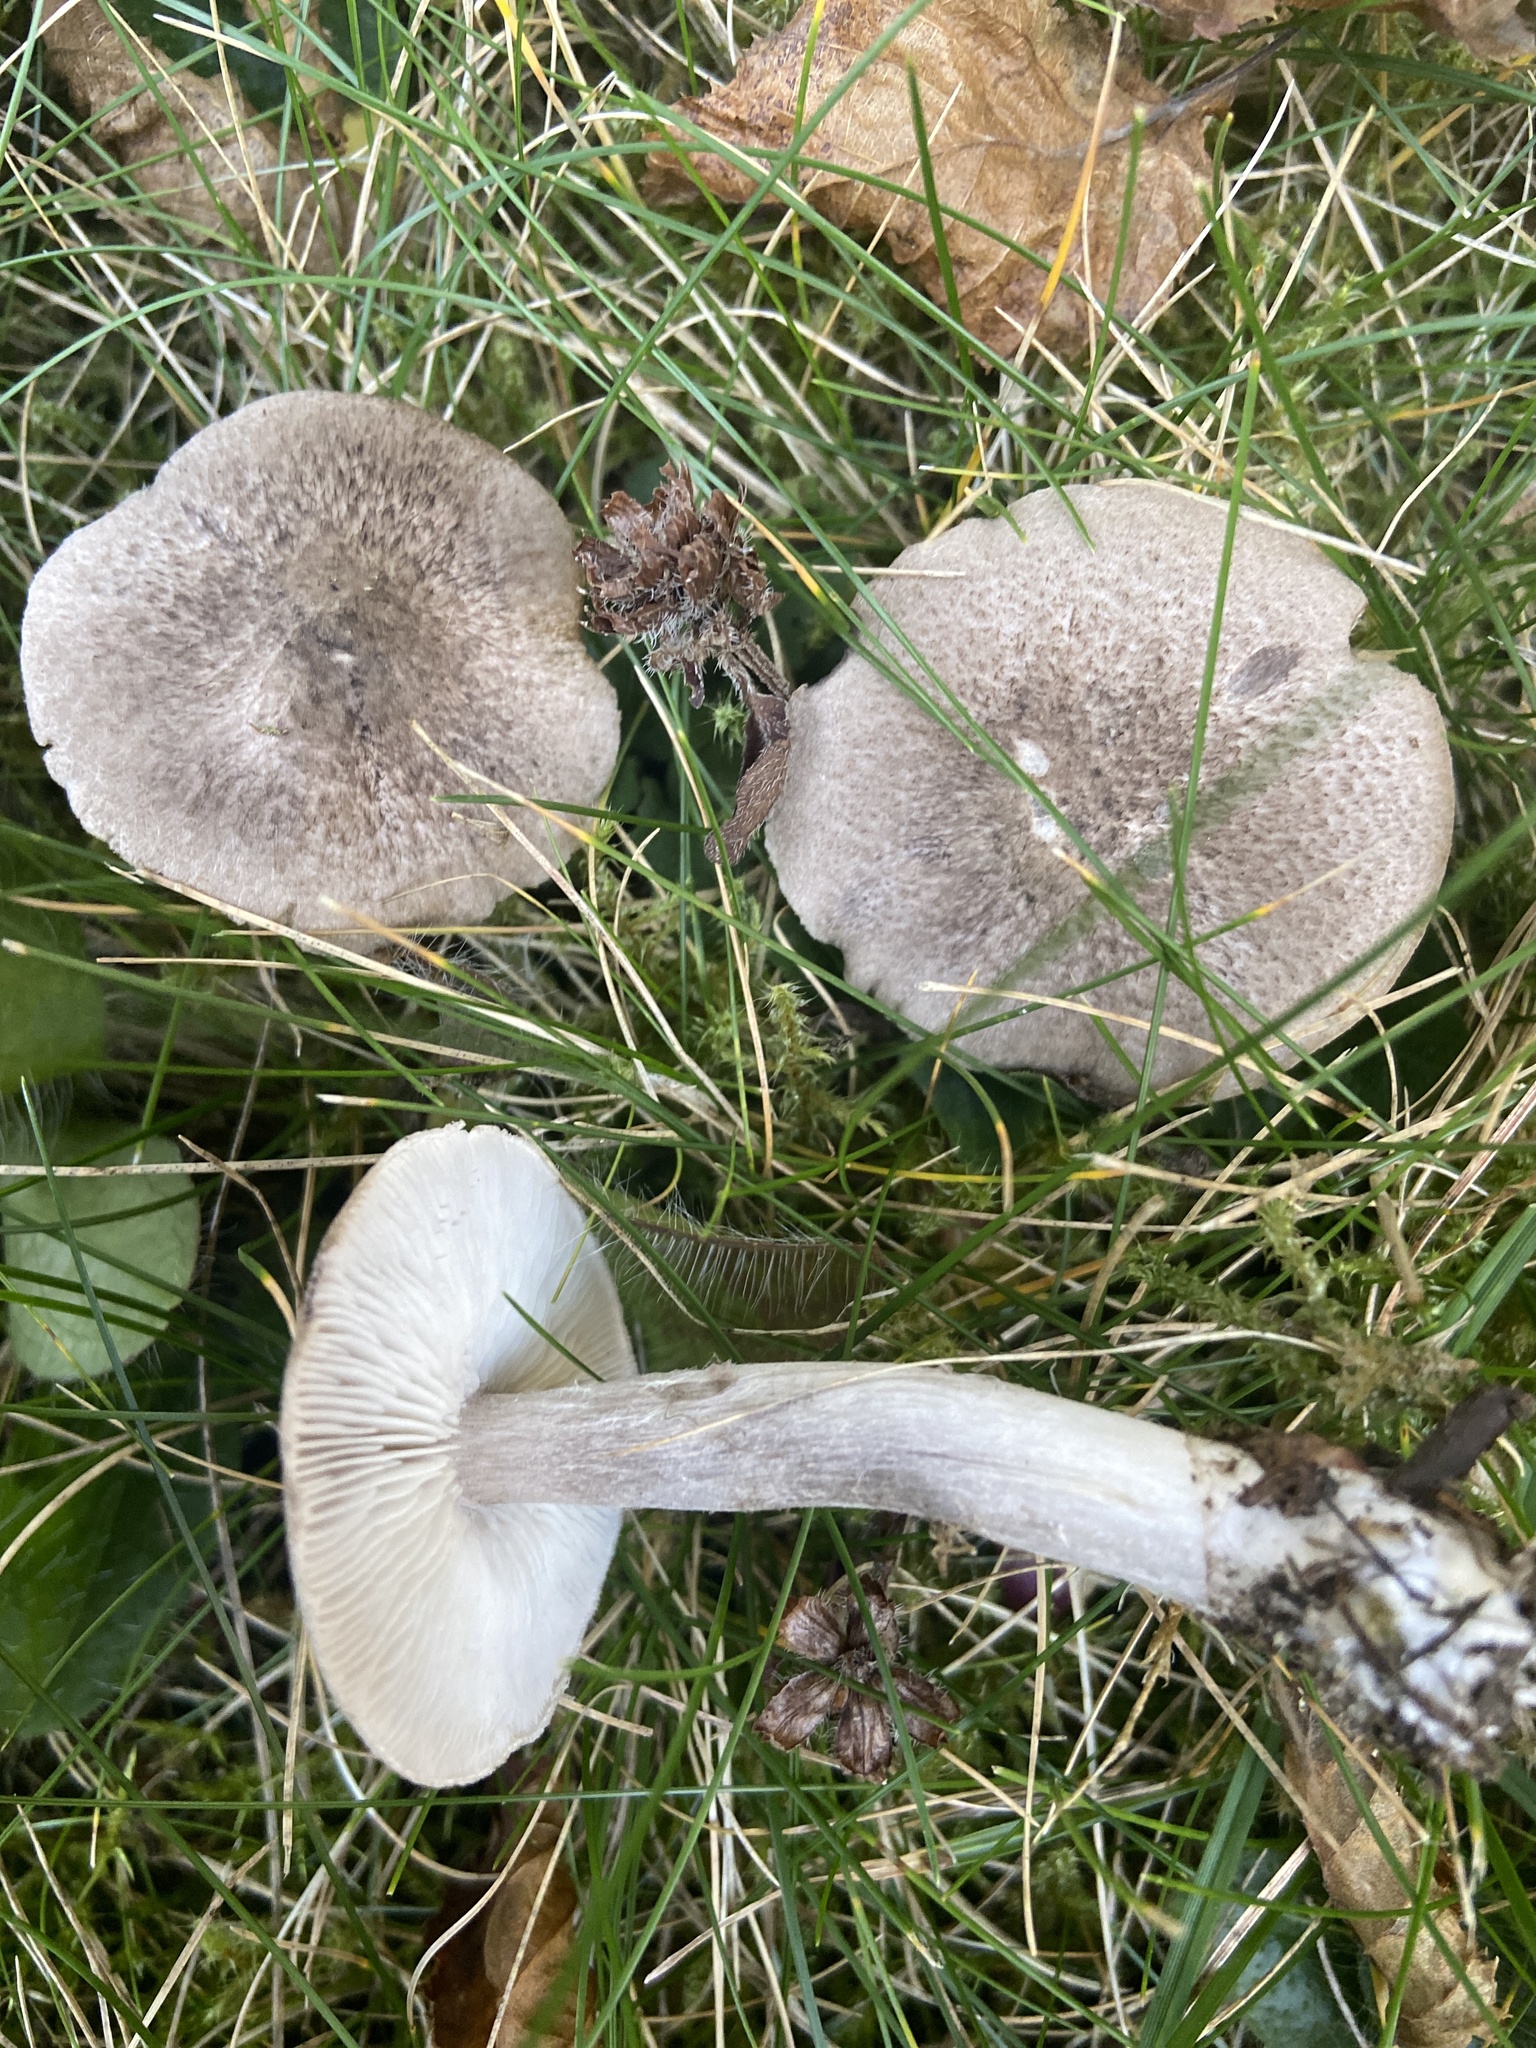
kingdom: Fungi
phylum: Basidiomycota
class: Agaricomycetes
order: Agaricales
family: Tricholomataceae
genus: Tricholoma
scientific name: Tricholoma terreum
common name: Grey knight
